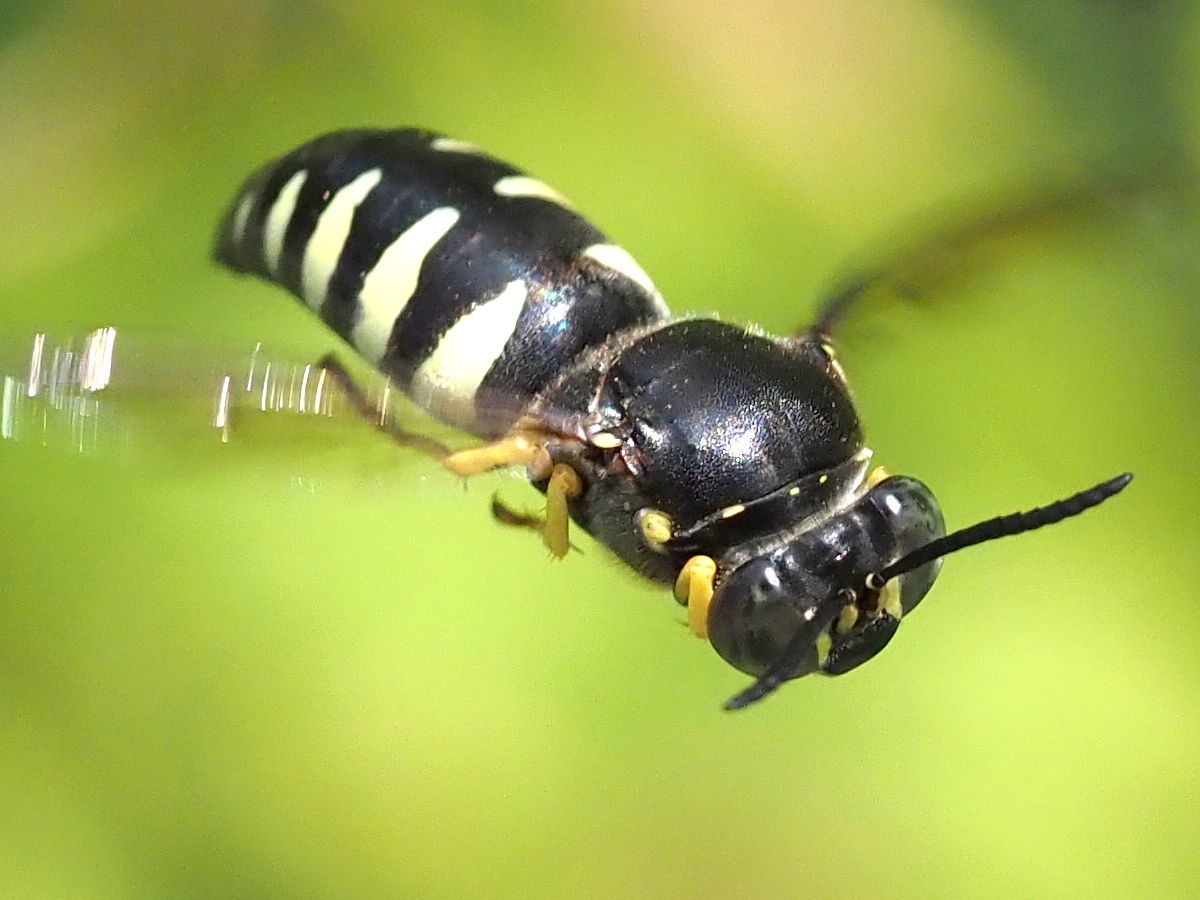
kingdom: Animalia
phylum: Arthropoda
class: Insecta
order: Hymenoptera
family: Crabronidae
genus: Bicyrtes
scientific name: Bicyrtes quadrifasciatus
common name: Four-banded stink bug hunter wasp
